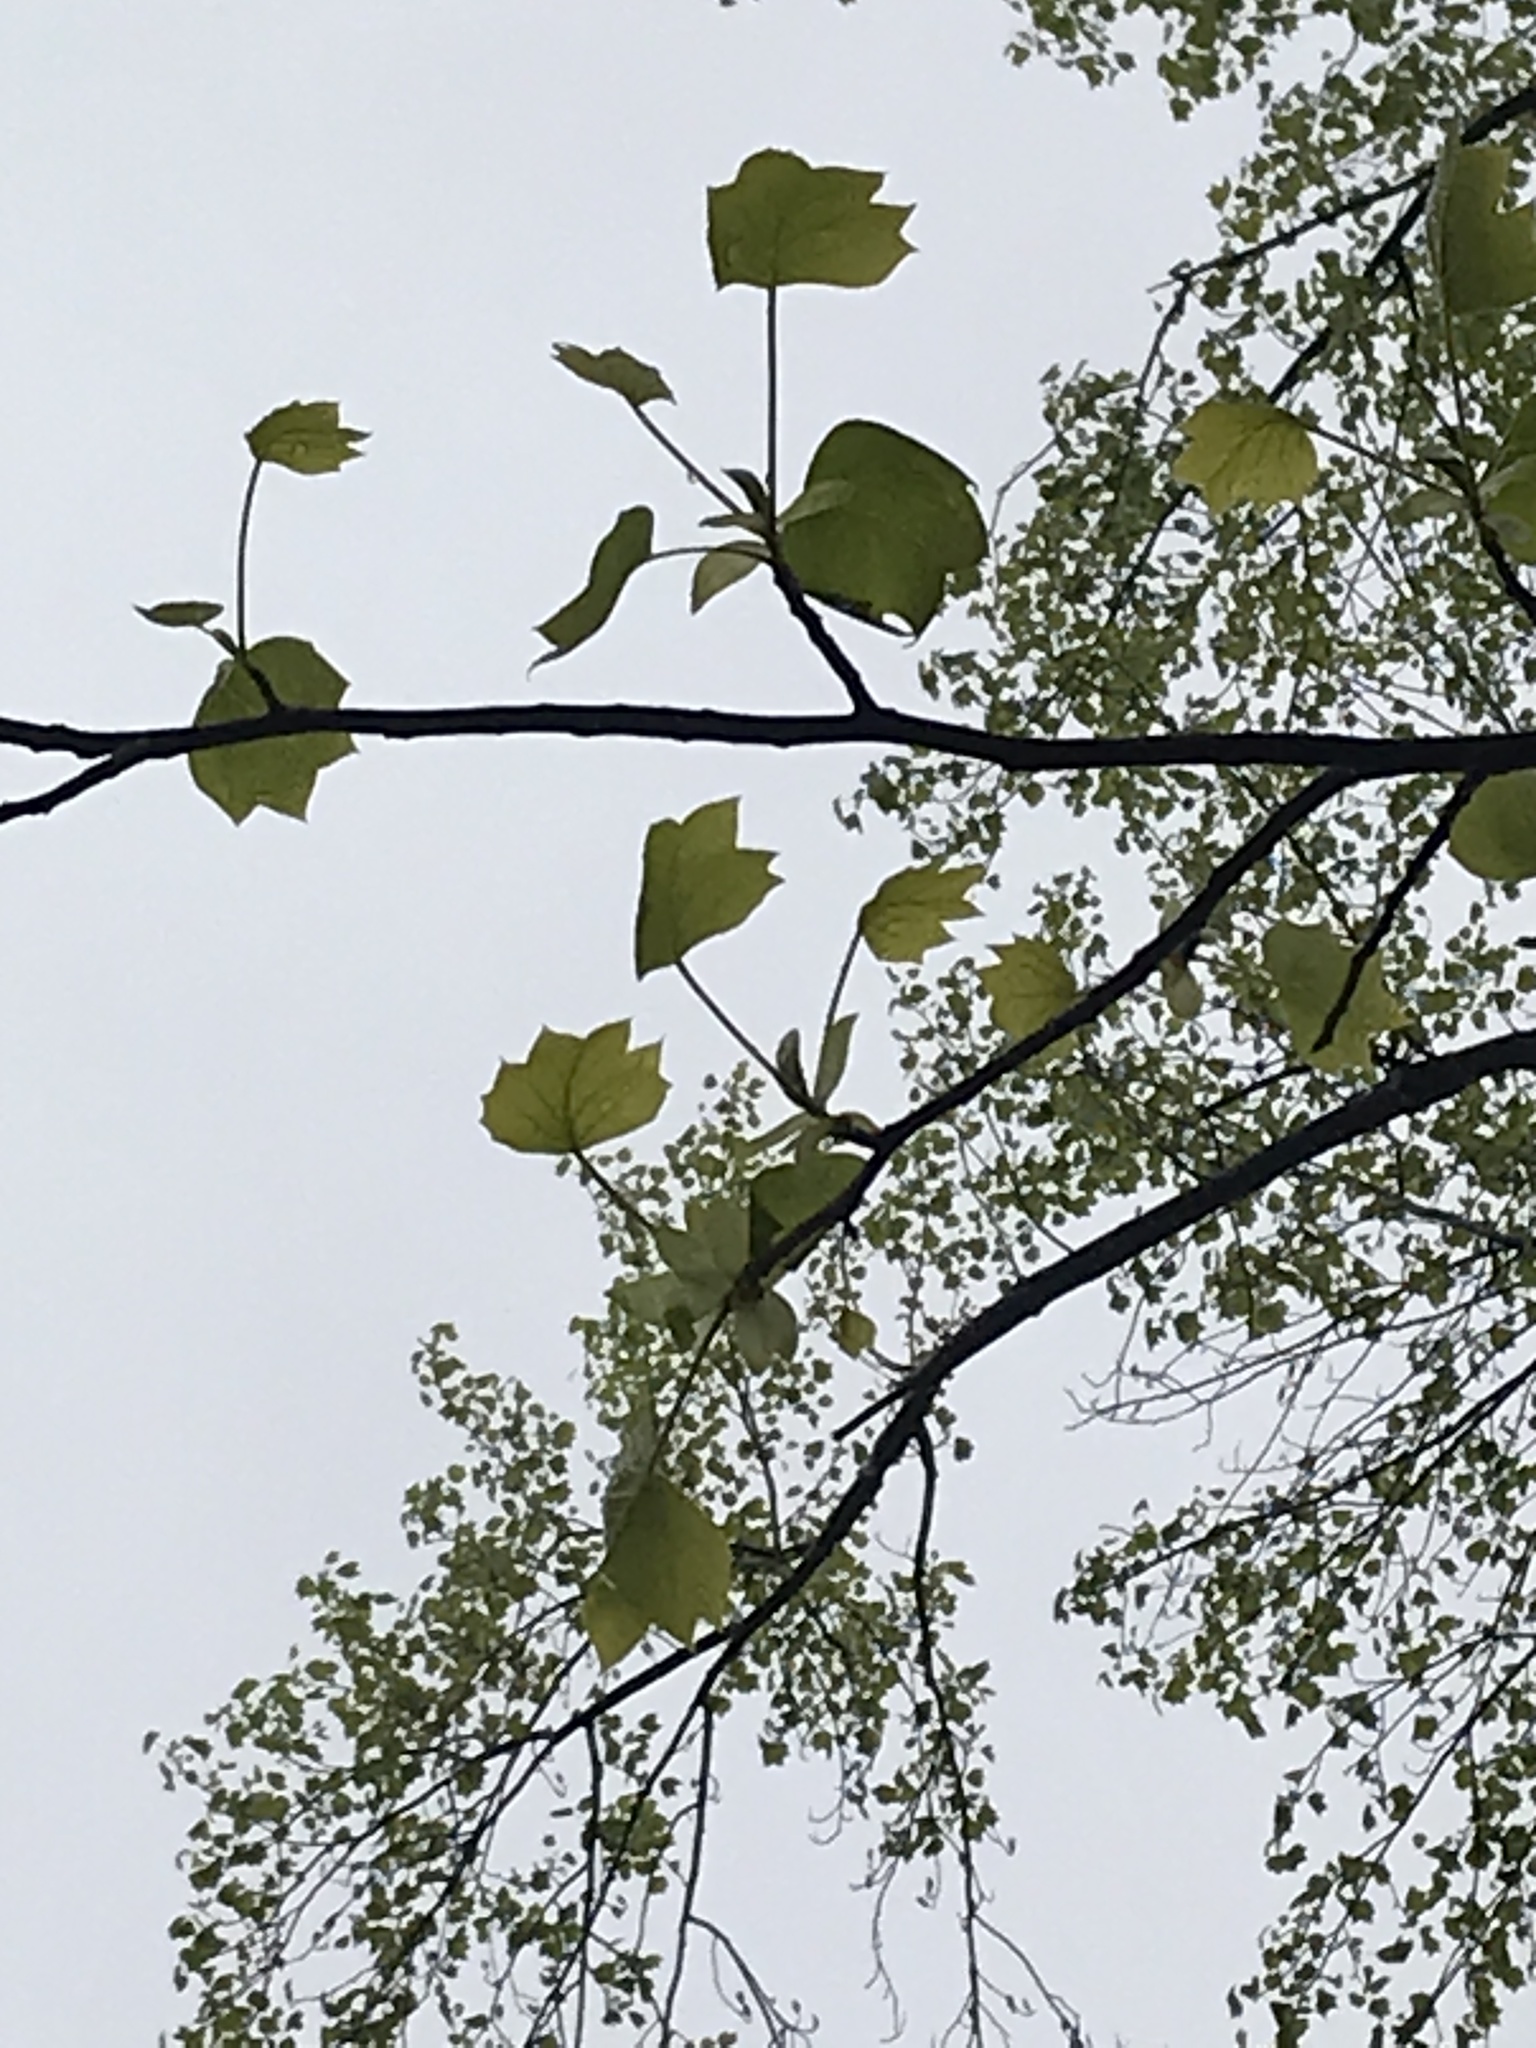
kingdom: Plantae
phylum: Tracheophyta
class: Magnoliopsida
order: Magnoliales
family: Magnoliaceae
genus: Liriodendron
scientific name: Liriodendron tulipifera
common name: Tulip tree
